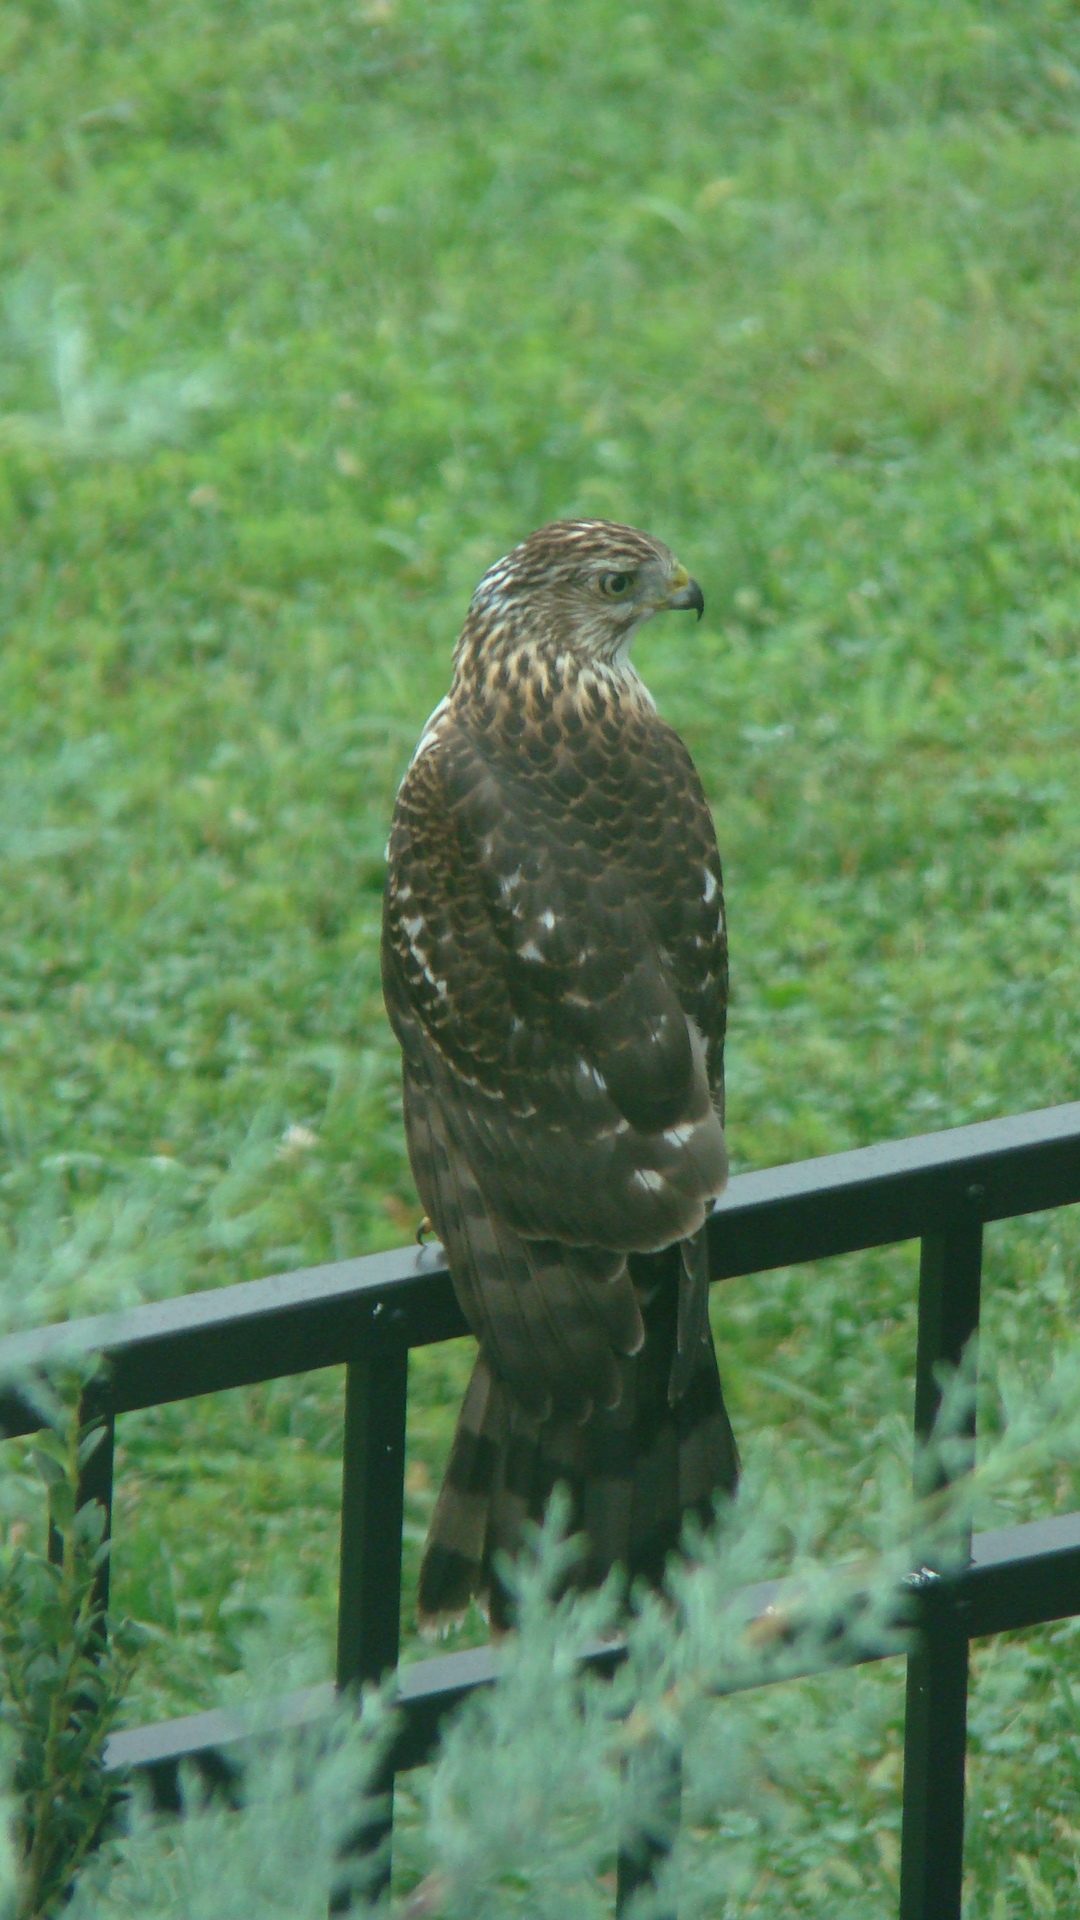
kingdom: Animalia
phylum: Chordata
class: Aves
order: Accipitriformes
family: Accipitridae
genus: Accipiter
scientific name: Accipiter cooperii
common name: Cooper's hawk
